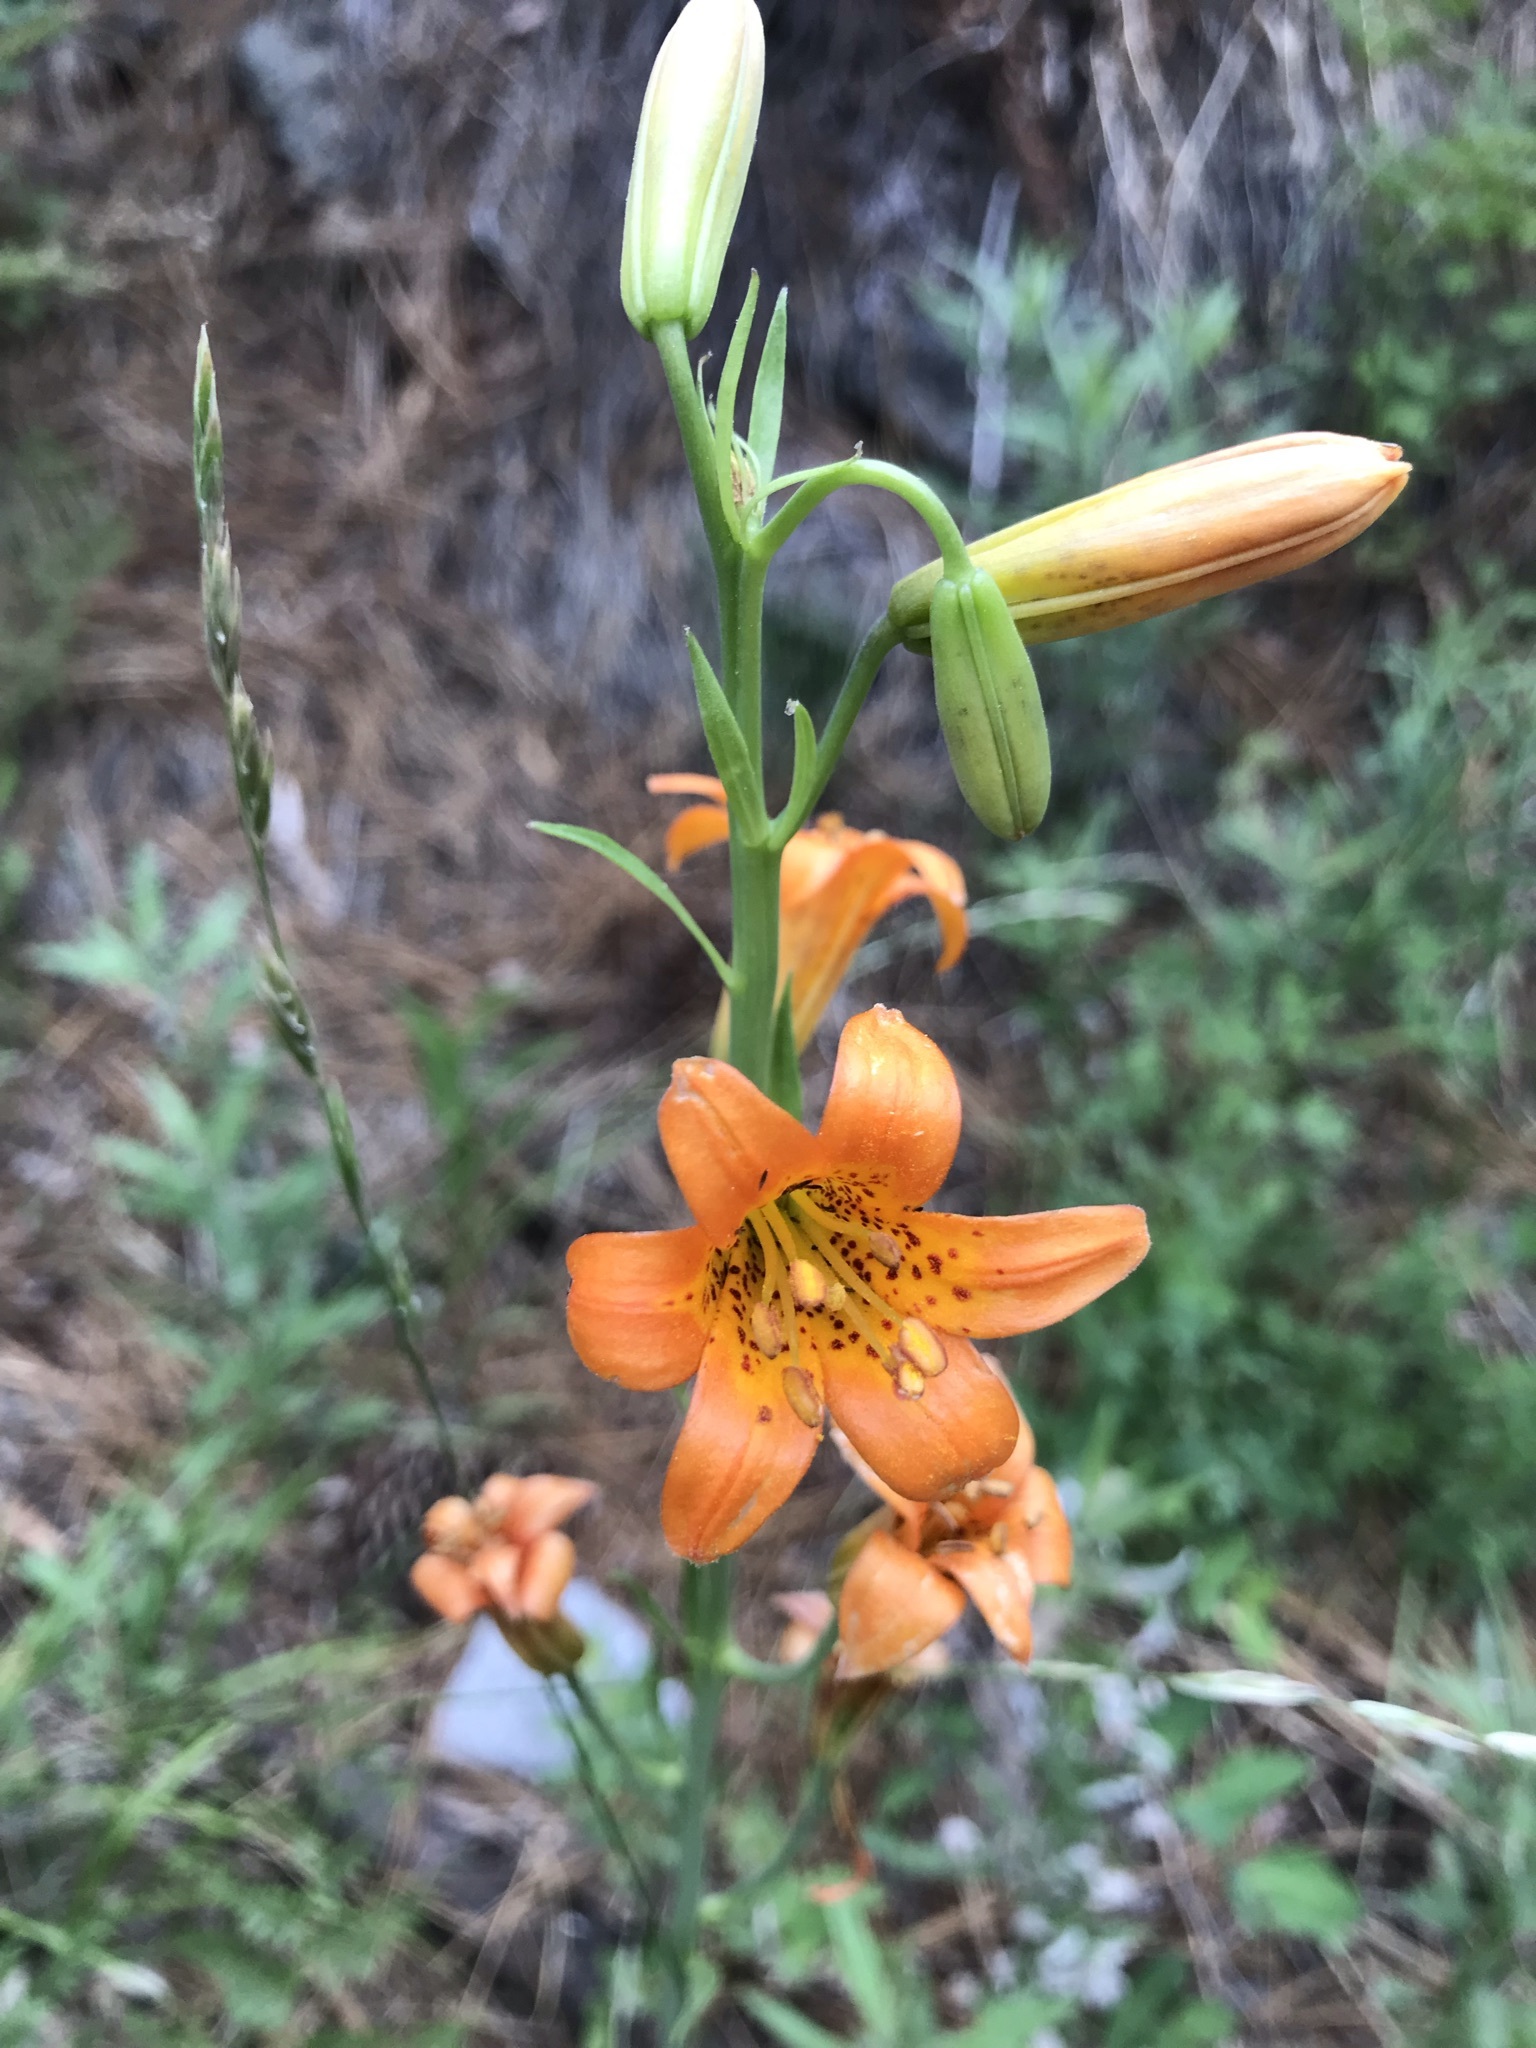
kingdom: Plantae
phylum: Tracheophyta
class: Liliopsida
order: Liliales
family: Liliaceae
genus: Lilium
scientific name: Lilium parvum
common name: Alpine lily
